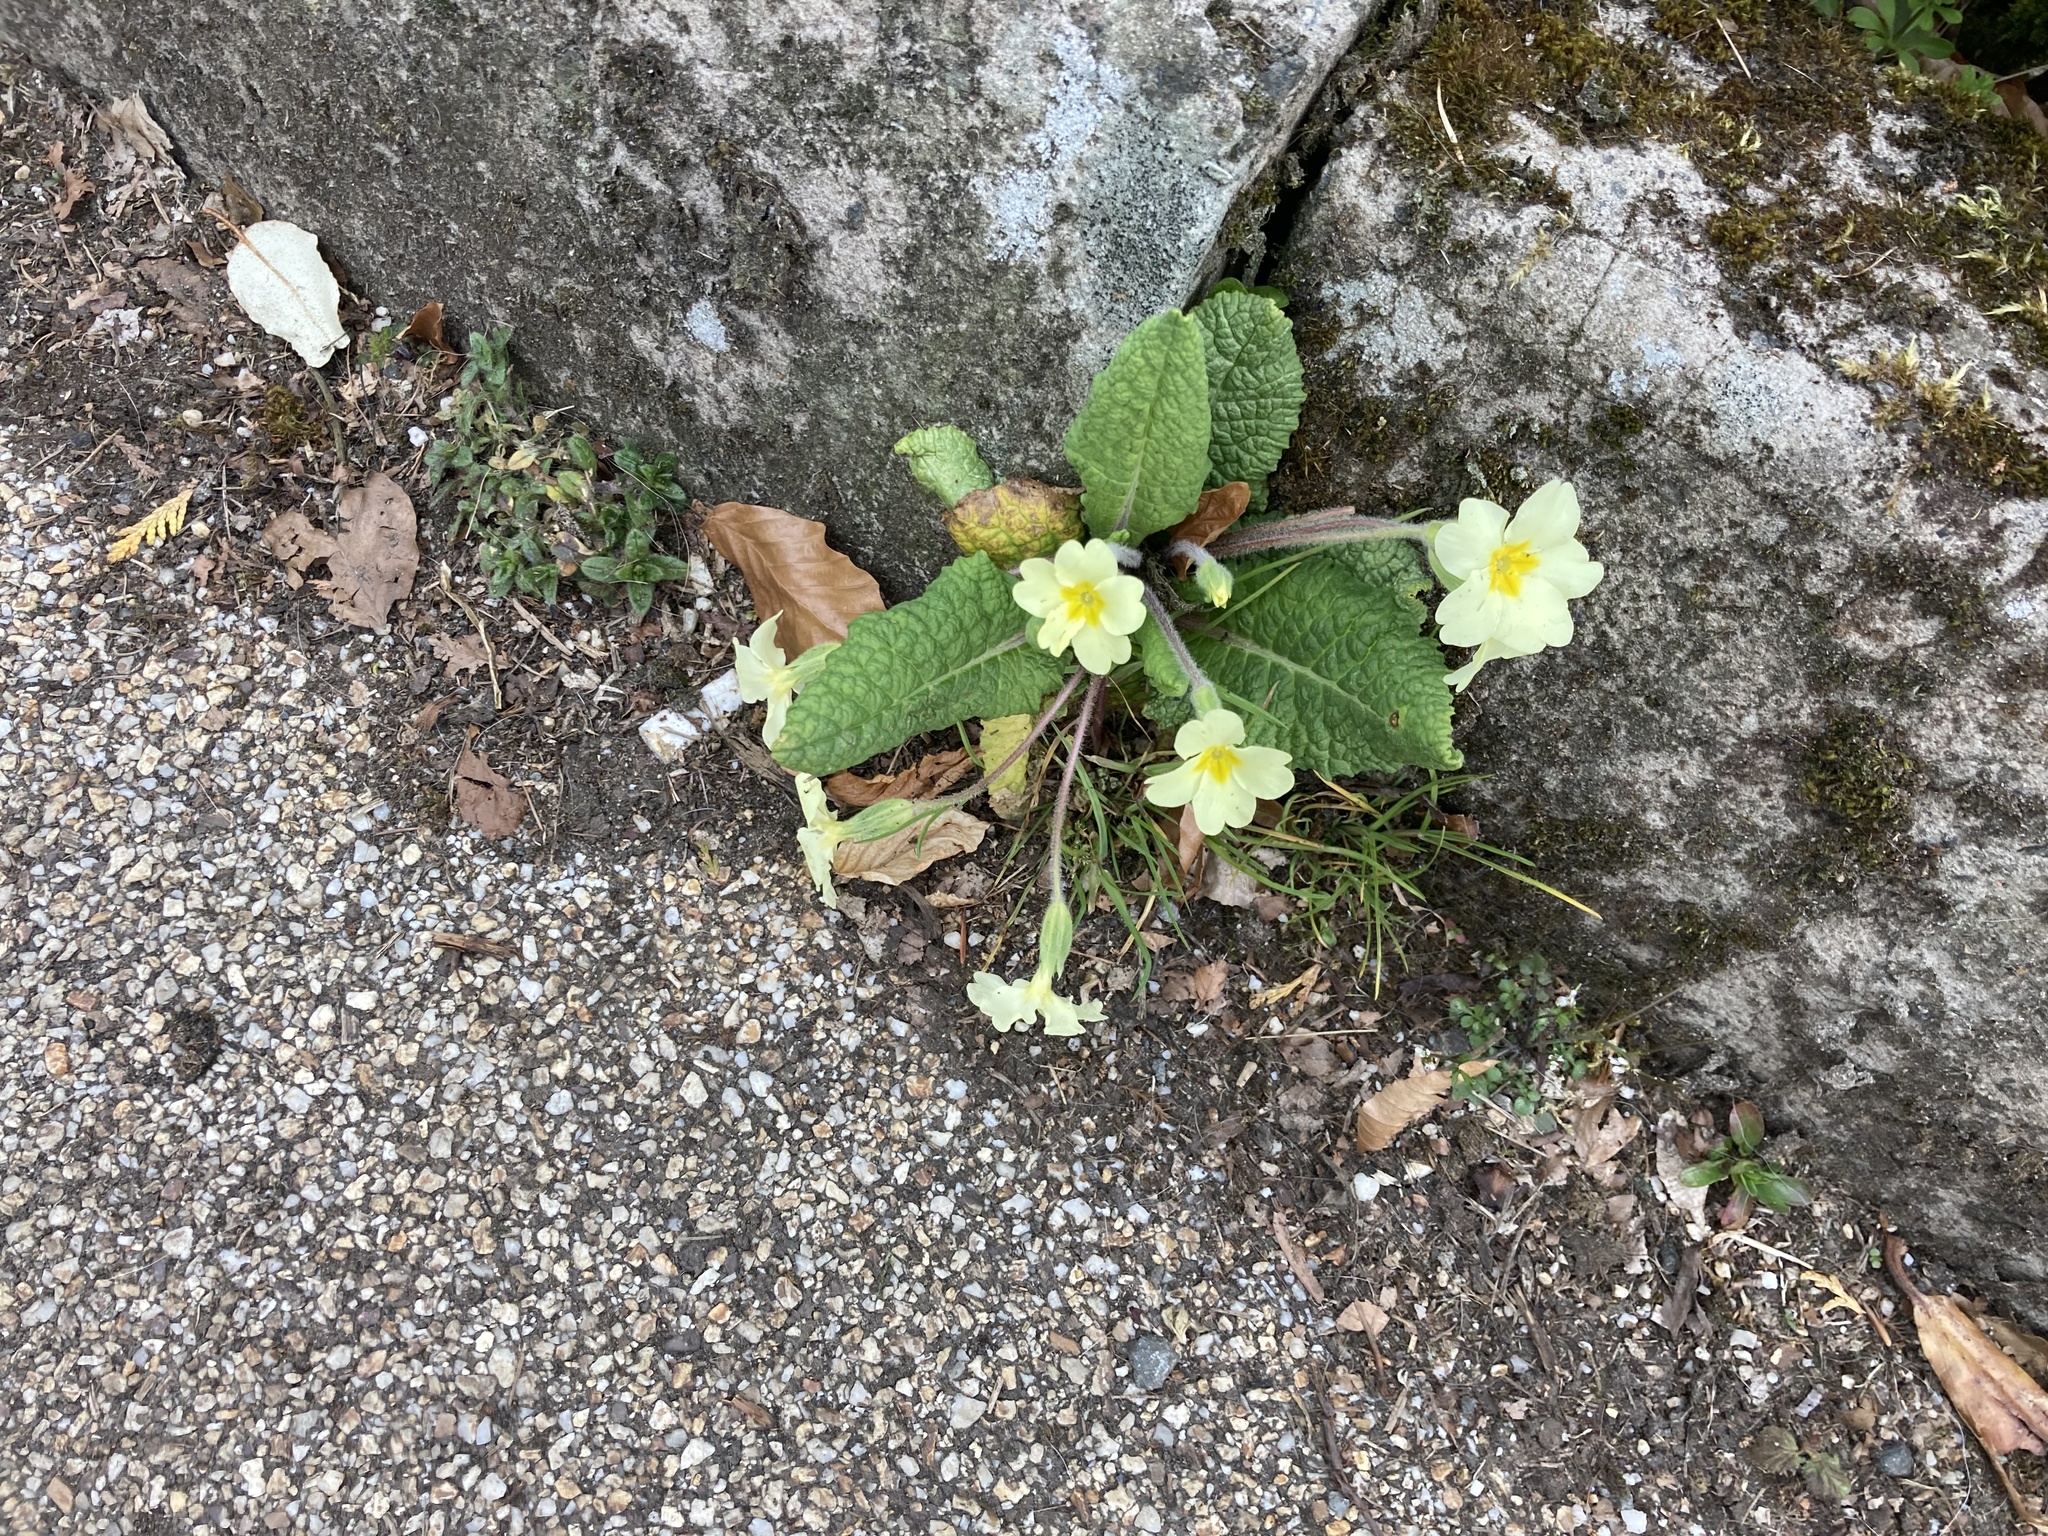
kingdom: Plantae
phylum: Tracheophyta
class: Magnoliopsida
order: Ericales
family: Primulaceae
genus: Primula
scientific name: Primula vulgaris
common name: Primrose
